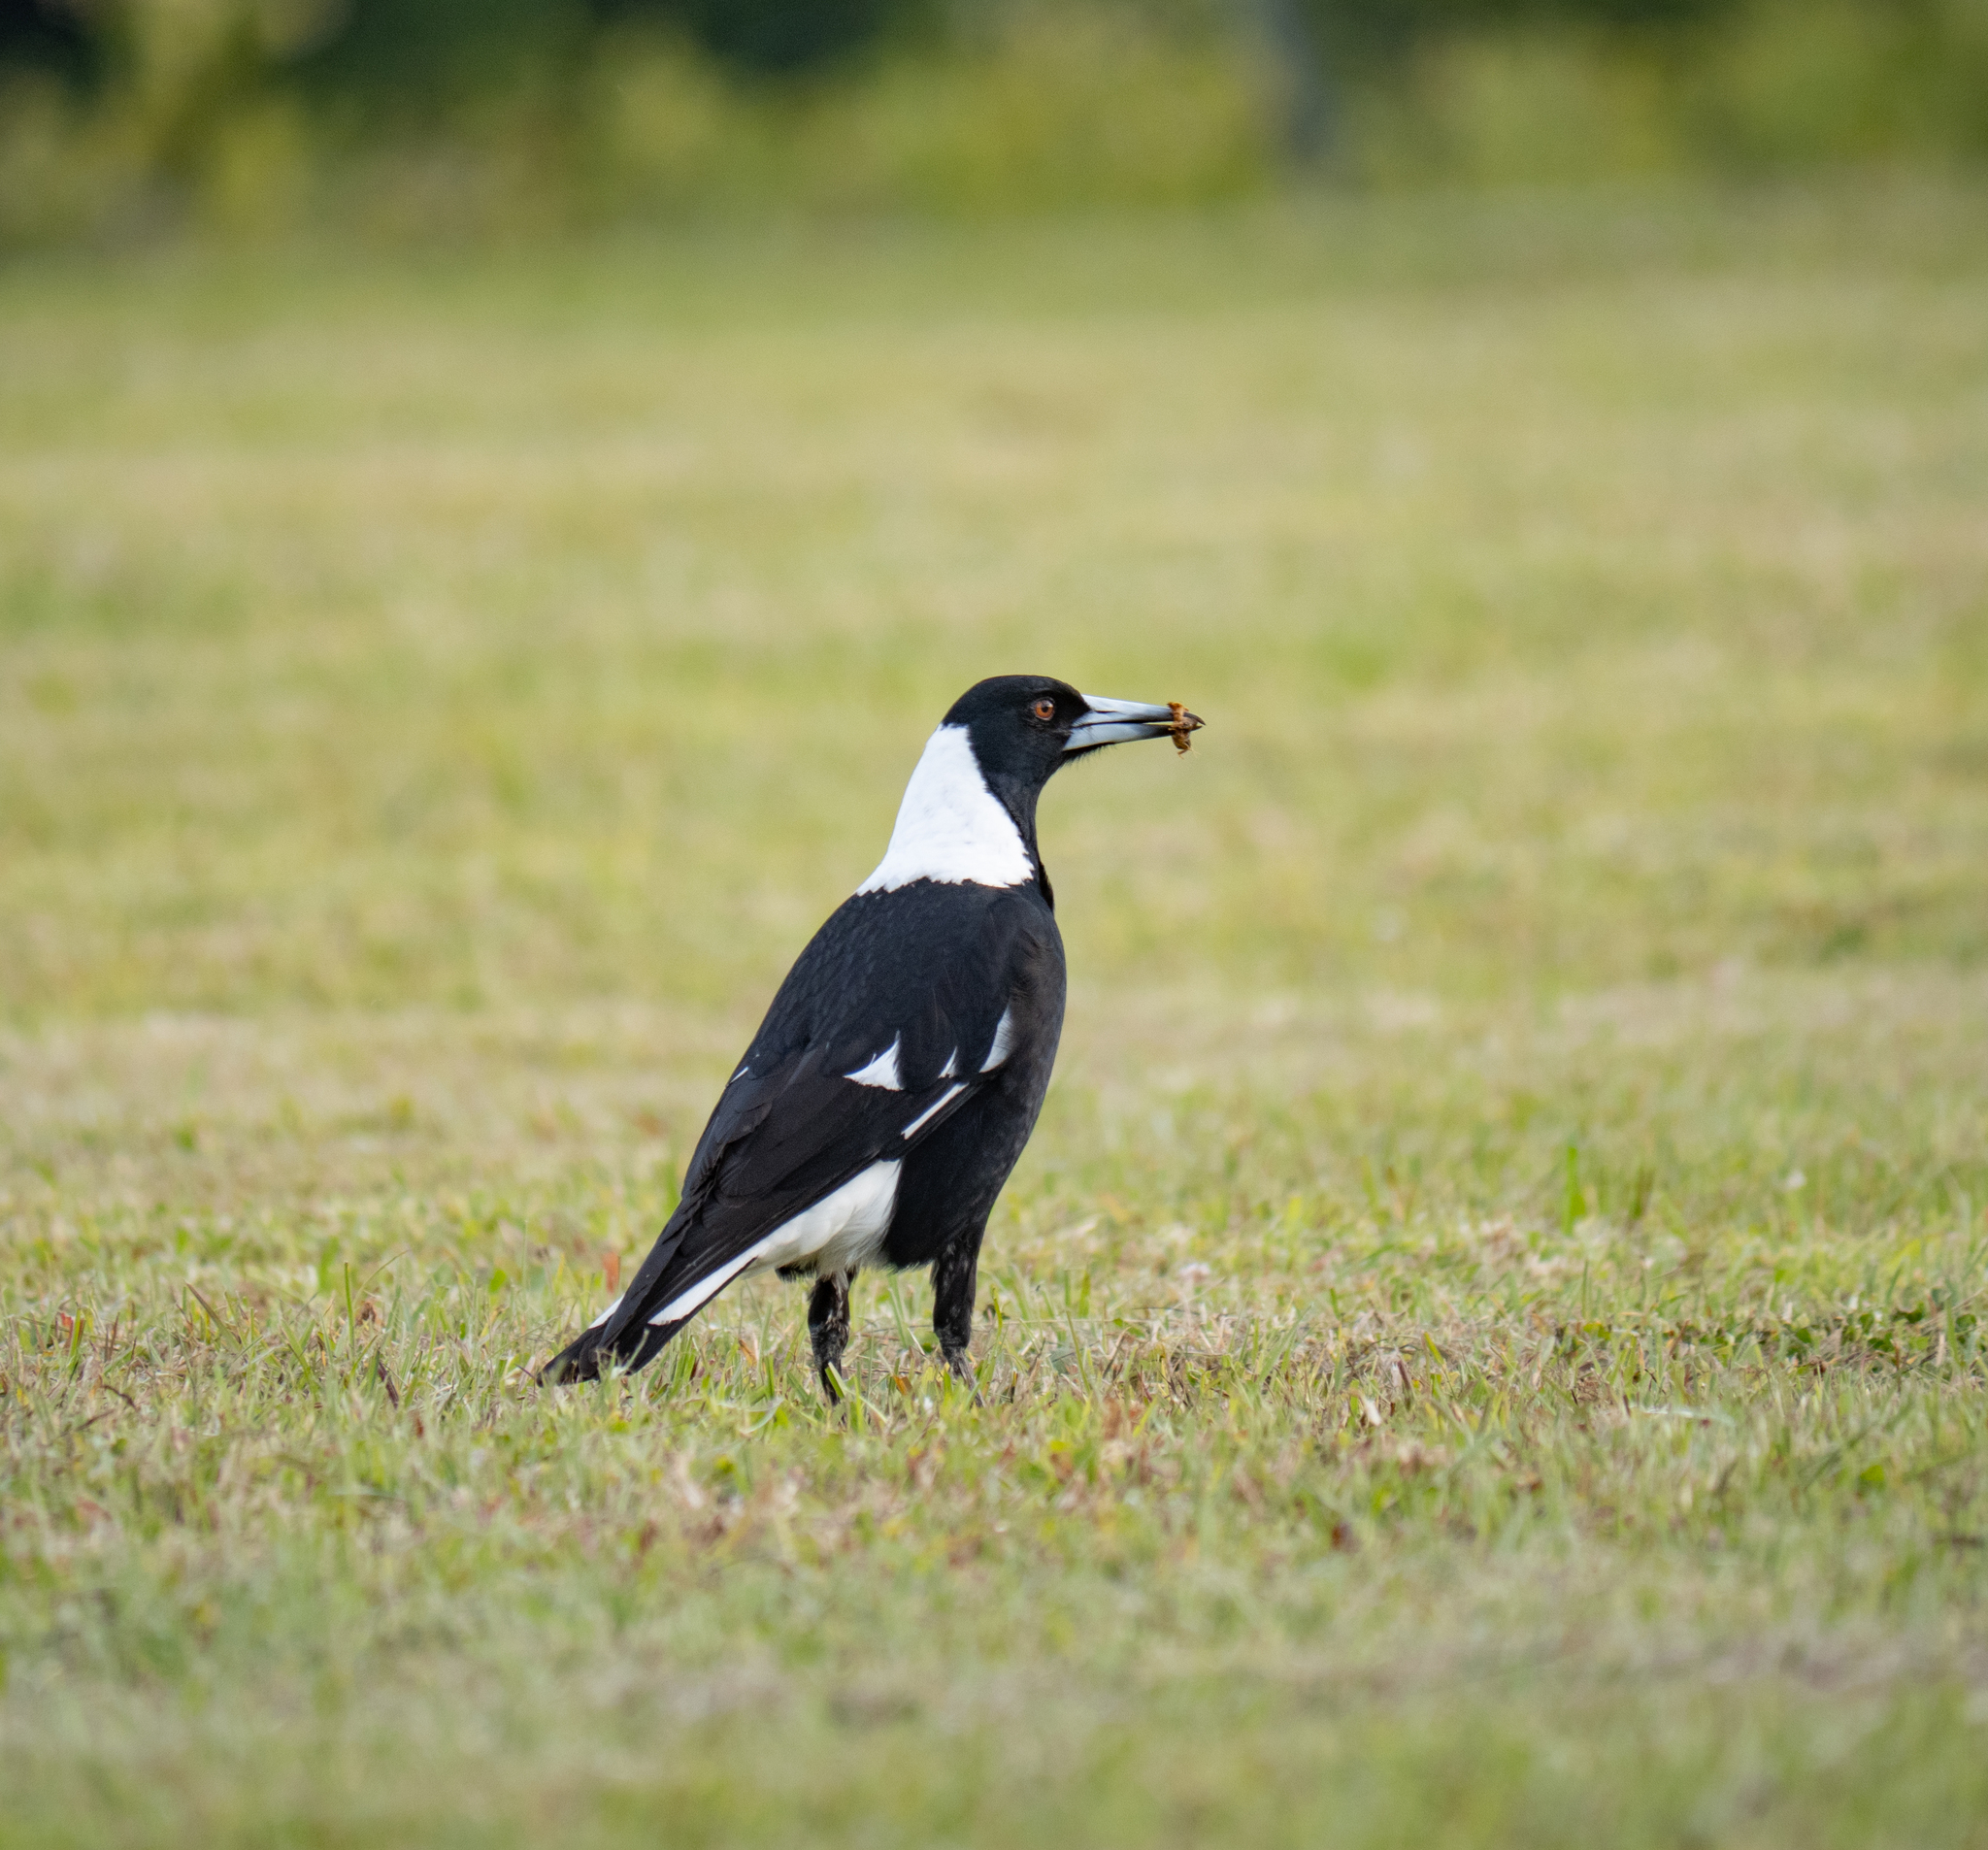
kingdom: Animalia
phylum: Chordata
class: Aves
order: Passeriformes
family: Cracticidae
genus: Gymnorhina
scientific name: Gymnorhina tibicen
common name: Australian magpie
